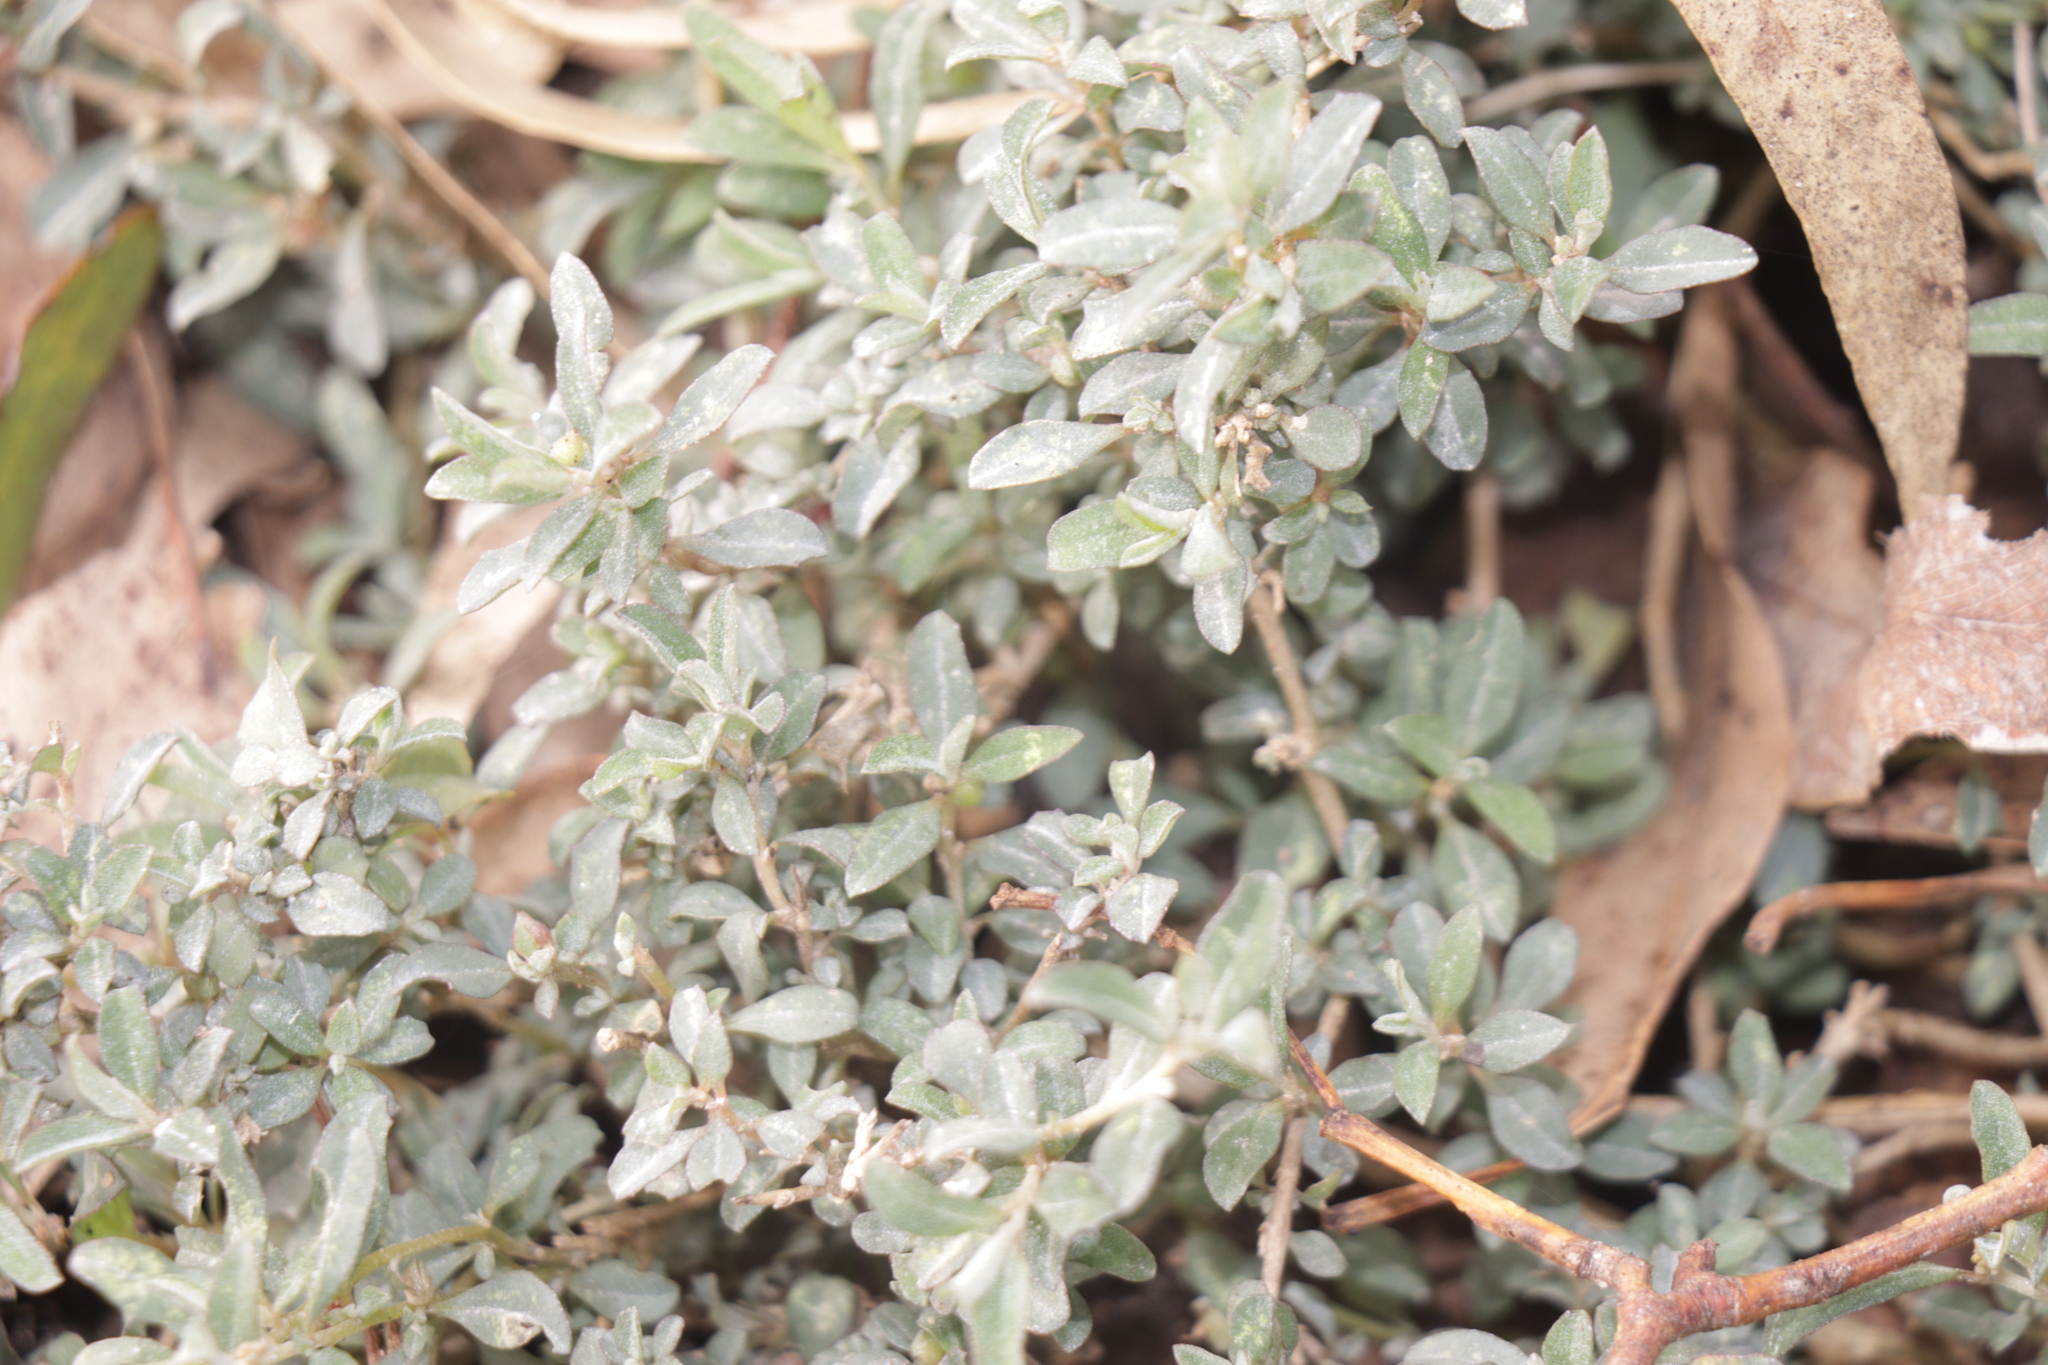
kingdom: Plantae
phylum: Tracheophyta
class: Magnoliopsida
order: Caryophyllales
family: Amaranthaceae
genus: Atriplex
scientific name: Atriplex semibaccata
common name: Australian saltbush
